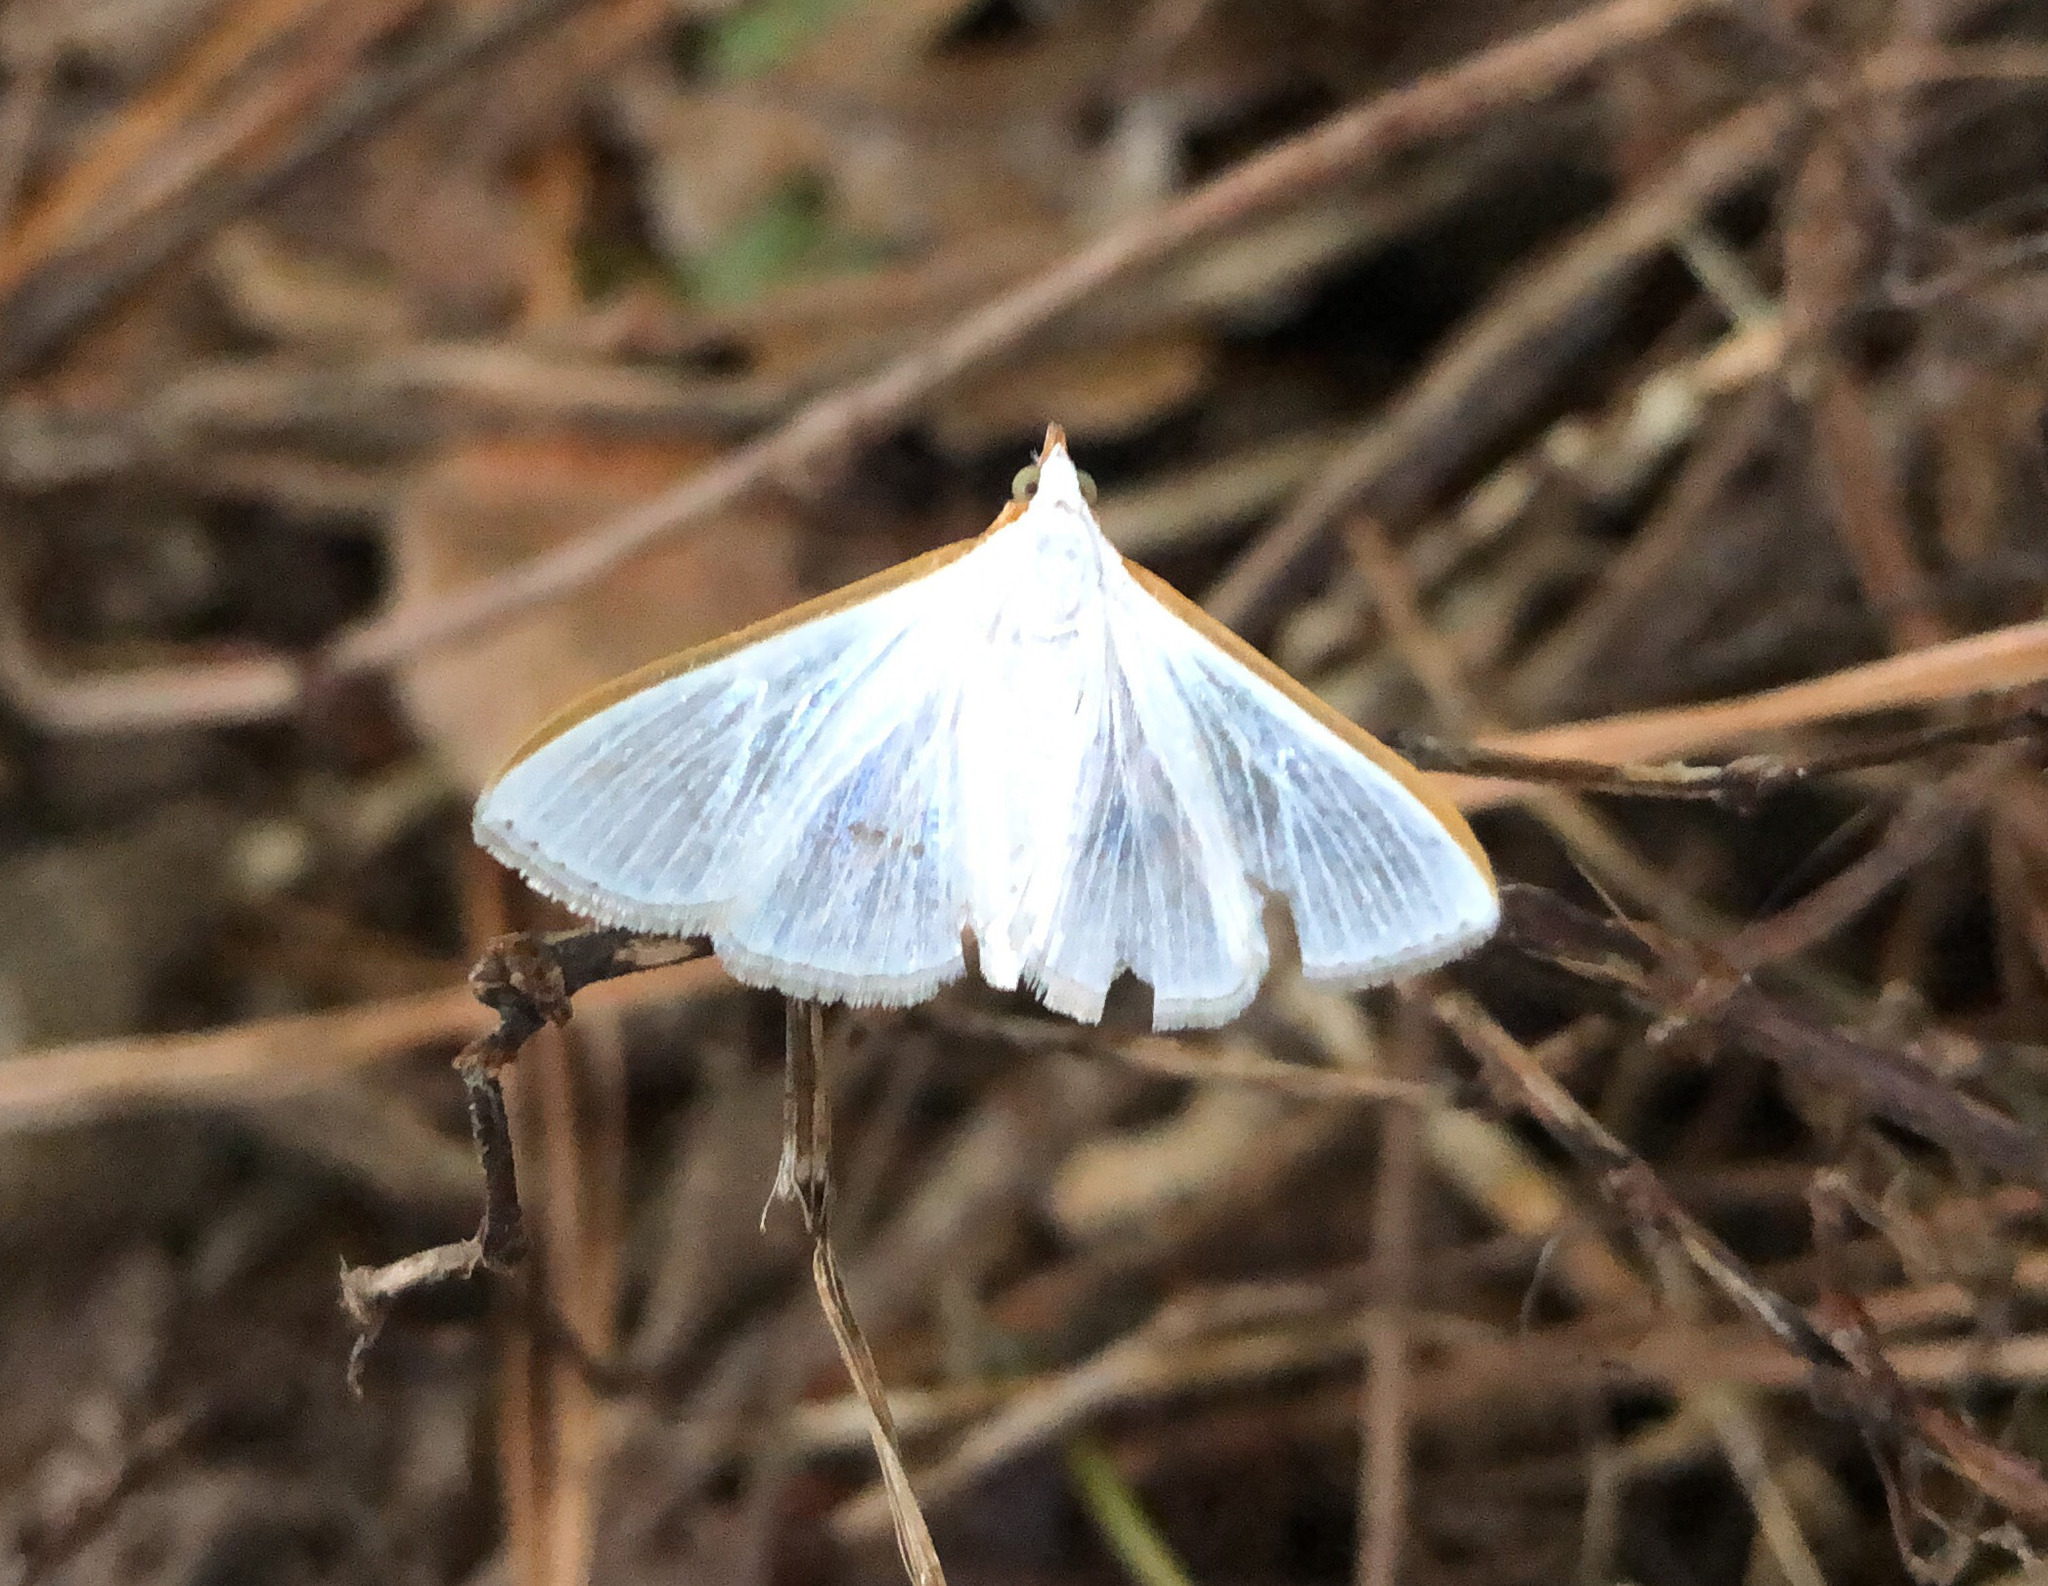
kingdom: Animalia
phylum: Arthropoda
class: Insecta
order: Lepidoptera
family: Crambidae
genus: Diaphania
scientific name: Diaphania costata
